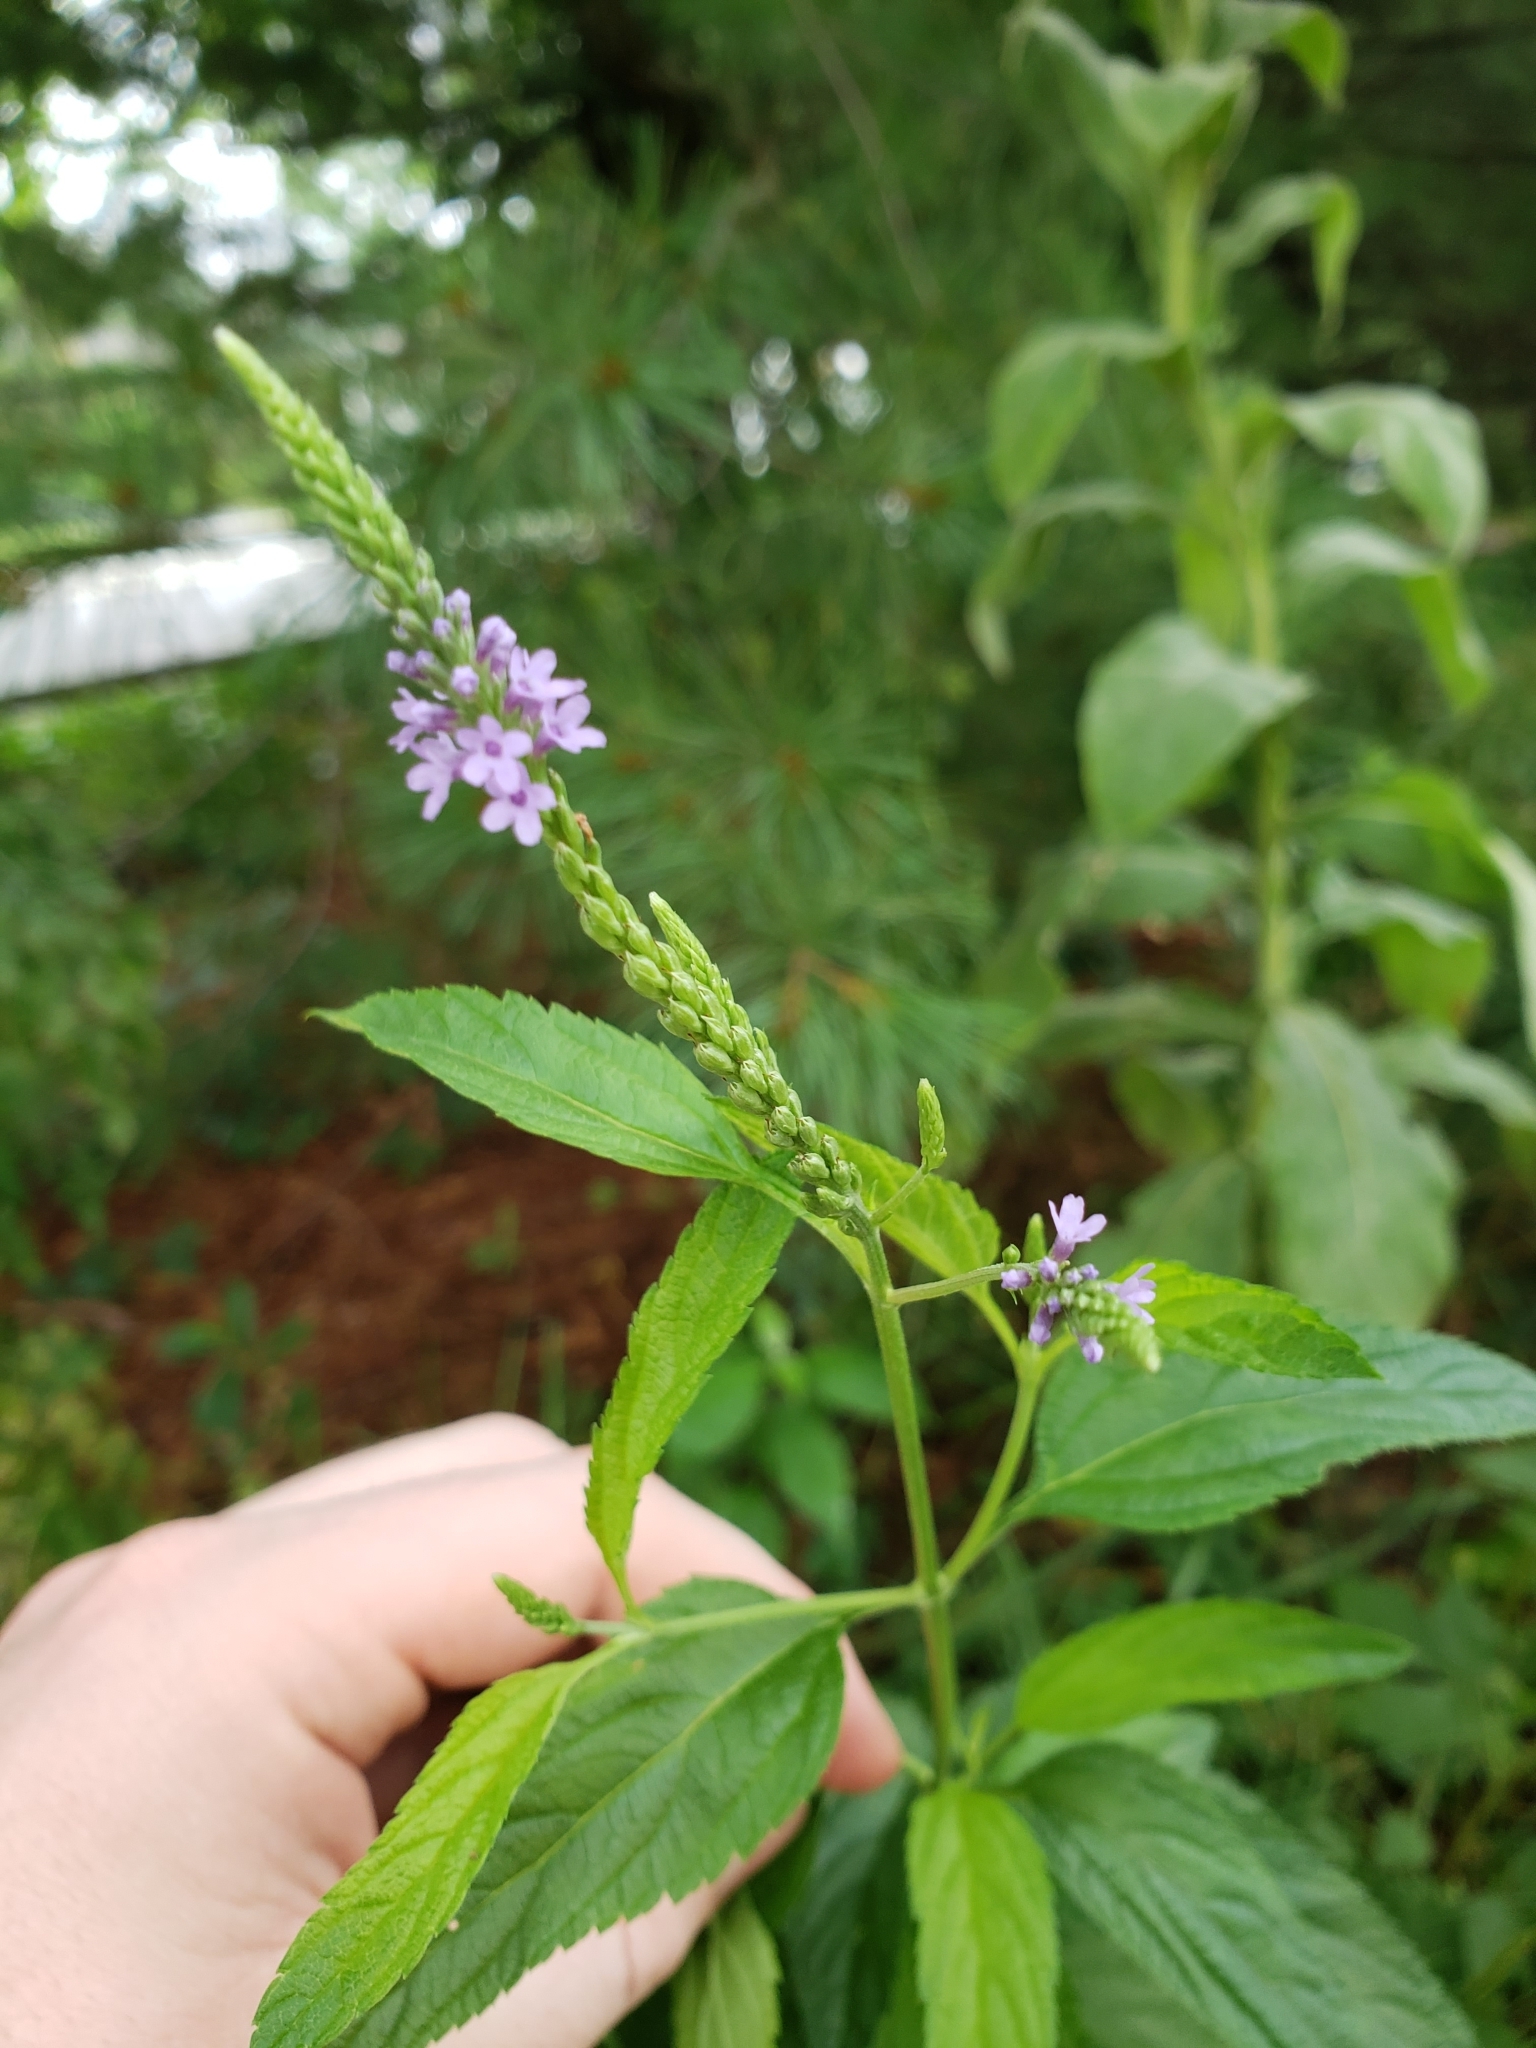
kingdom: Plantae
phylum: Tracheophyta
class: Magnoliopsida
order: Lamiales
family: Verbenaceae
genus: Verbena
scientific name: Verbena hastata
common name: American blue vervain
